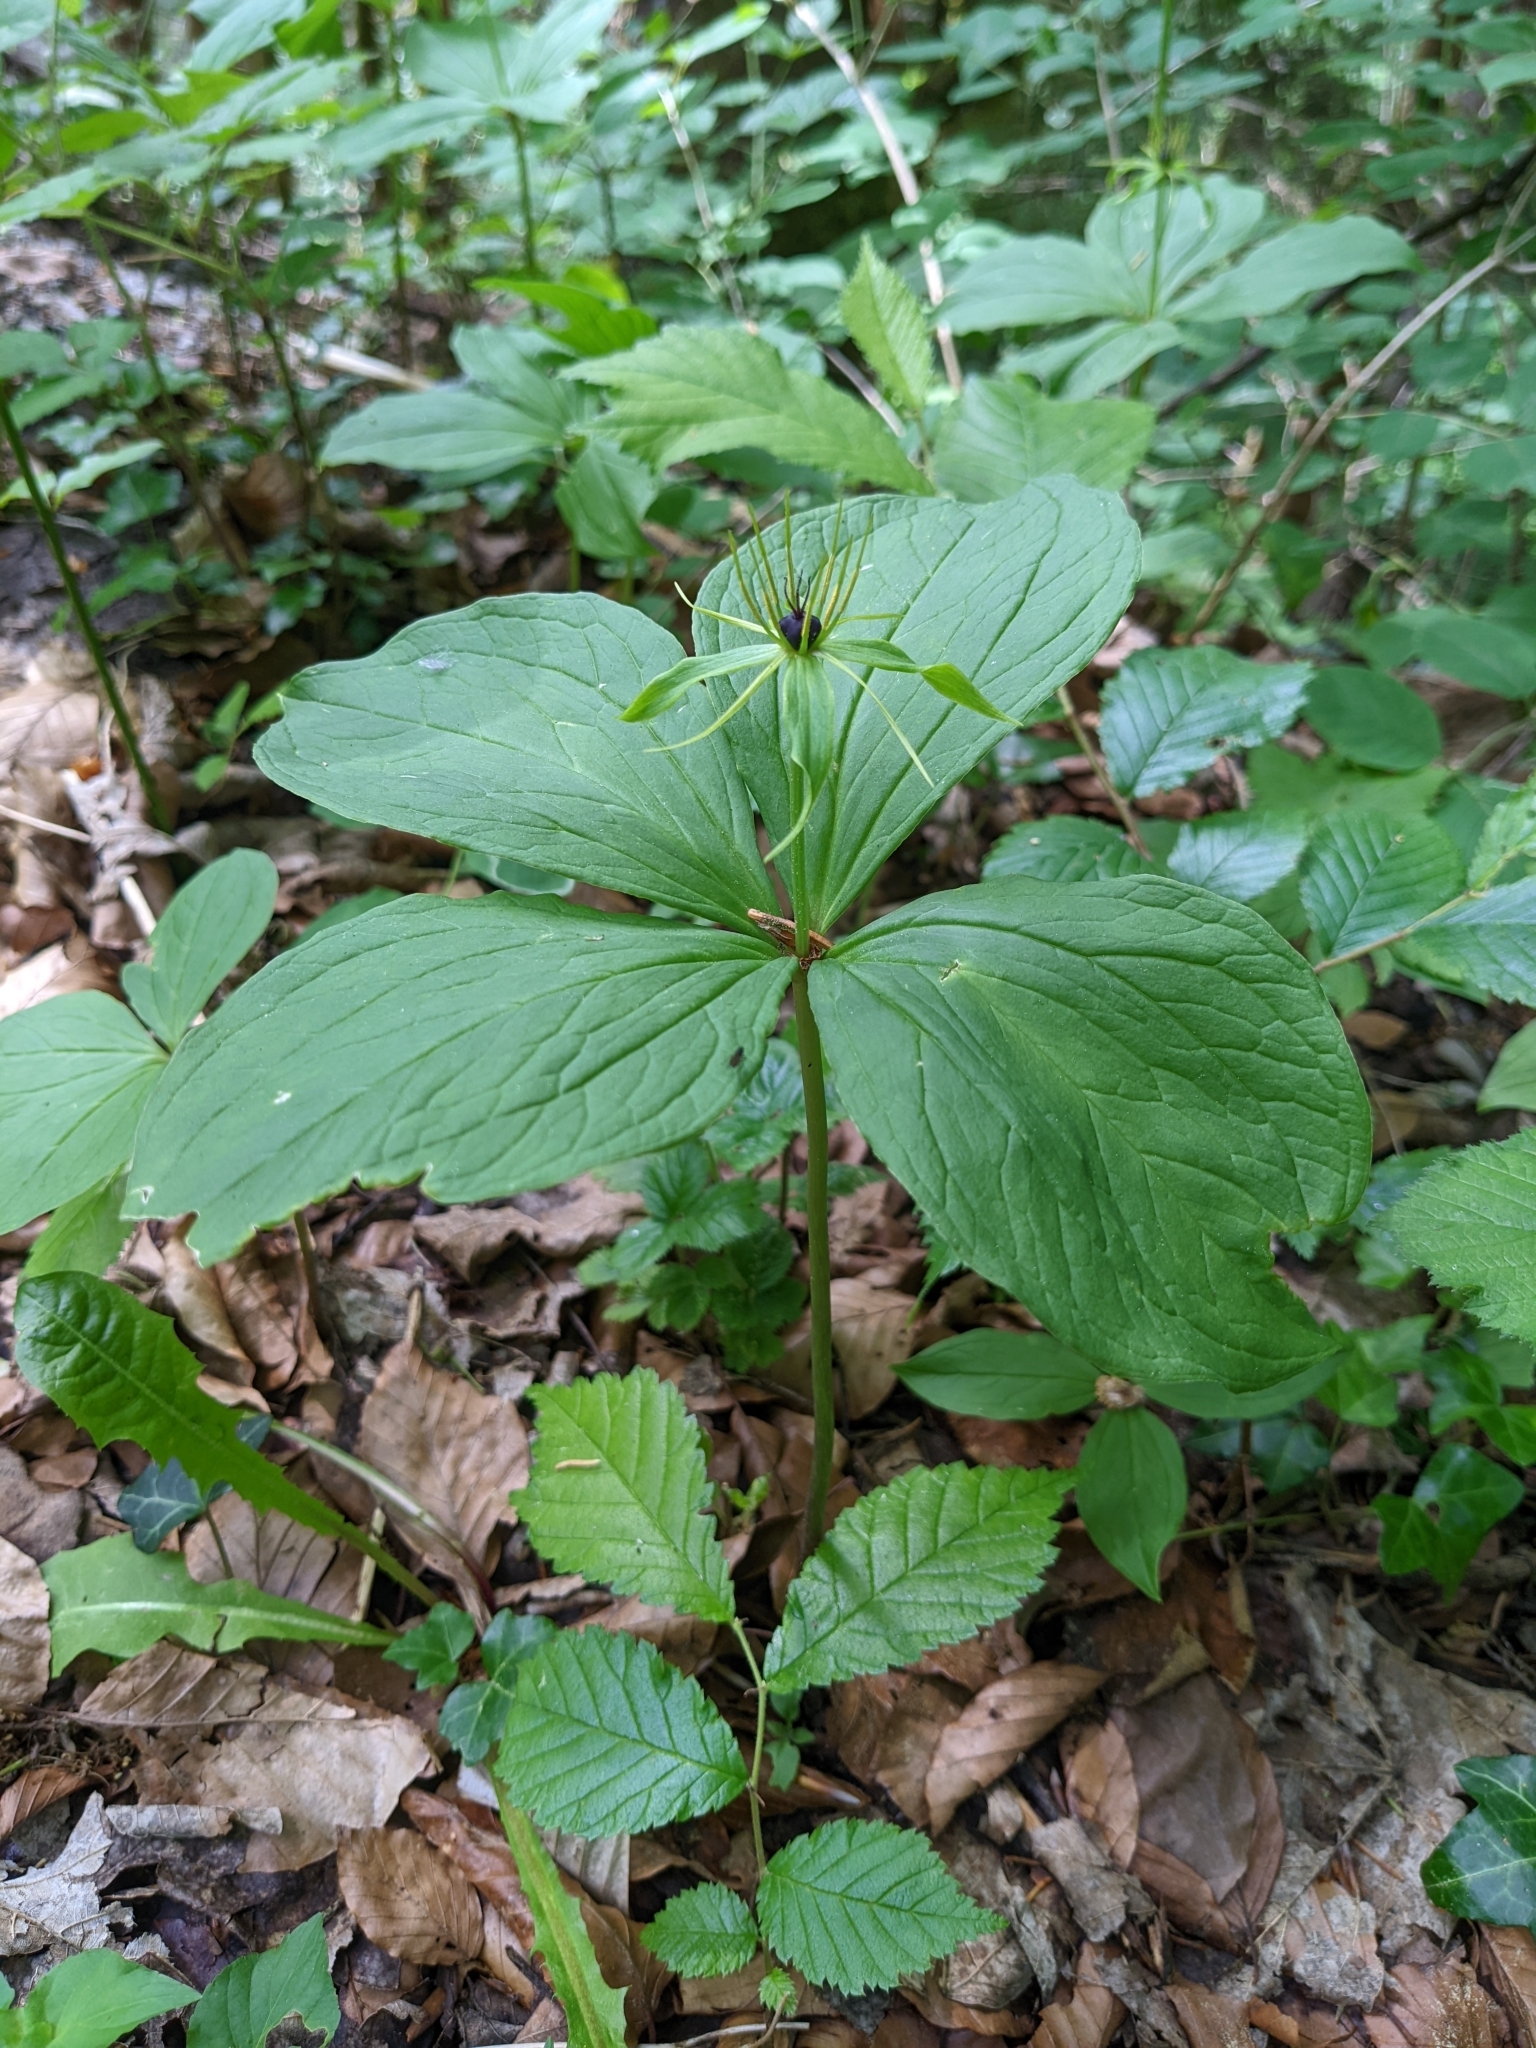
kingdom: Plantae
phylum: Tracheophyta
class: Liliopsida
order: Liliales
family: Melanthiaceae
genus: Paris
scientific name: Paris quadrifolia
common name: Herb-paris
